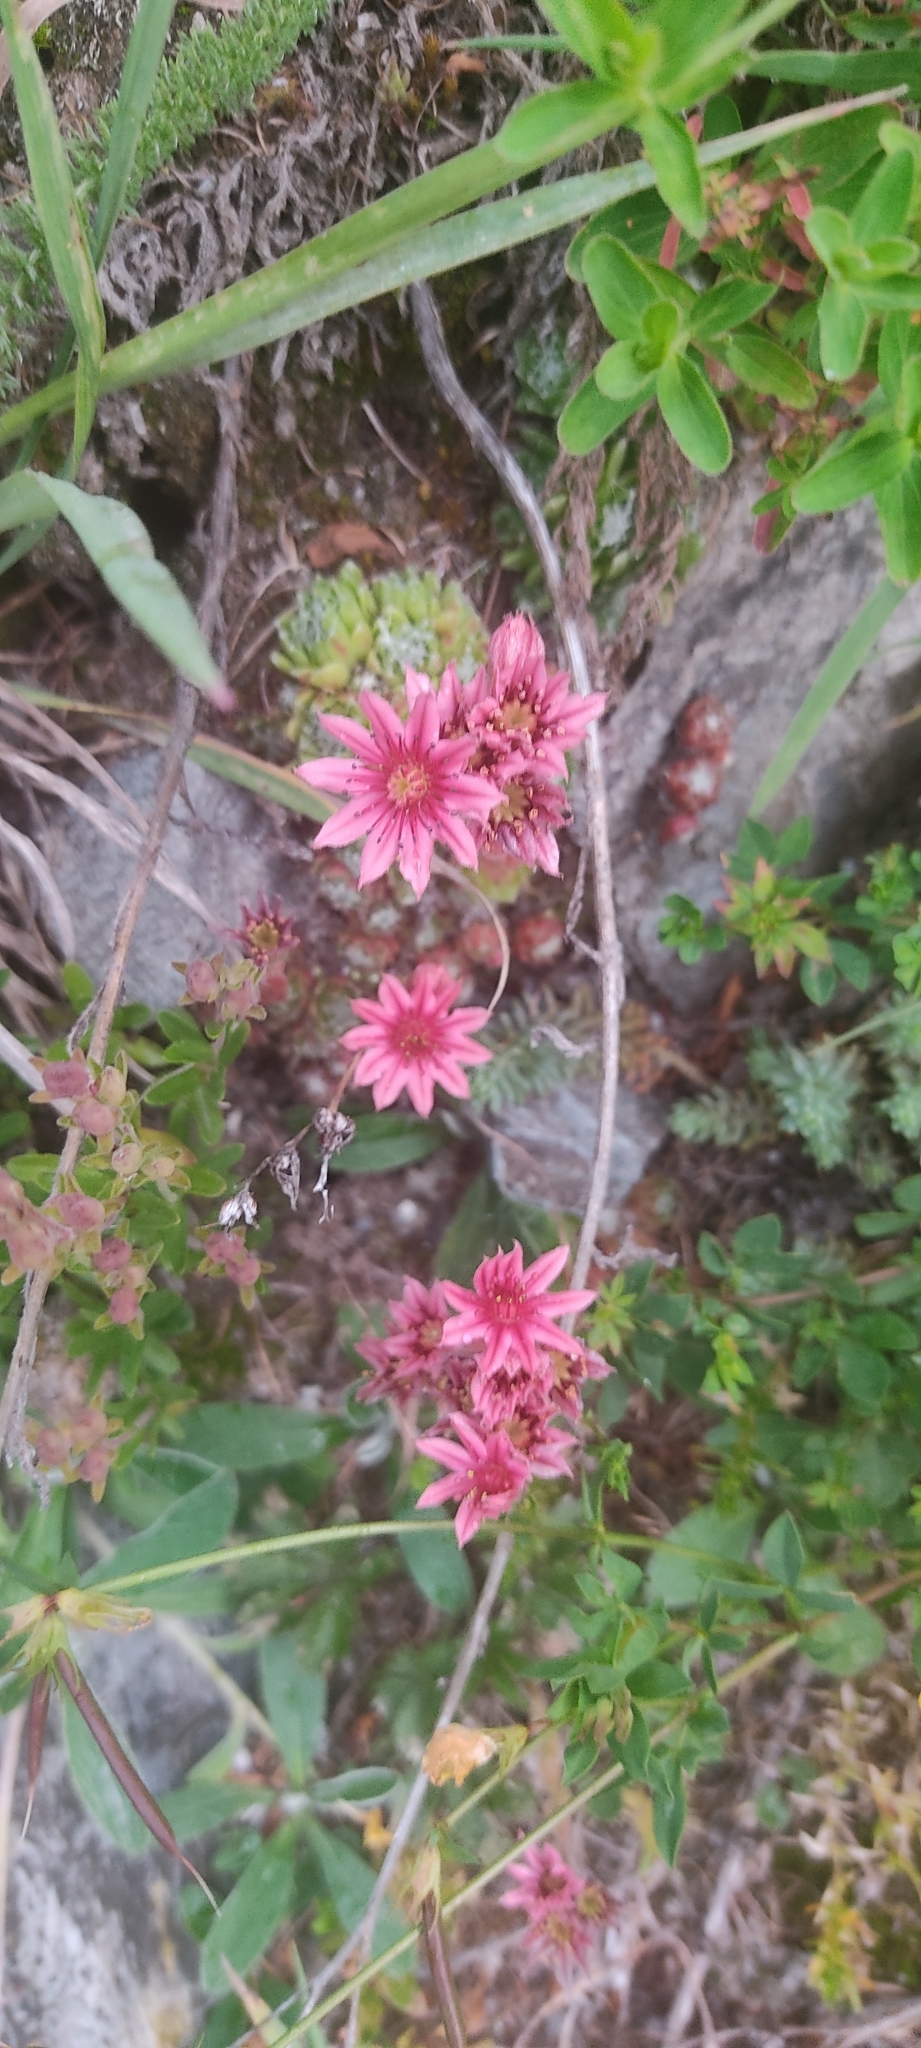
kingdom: Plantae
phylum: Tracheophyta
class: Magnoliopsida
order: Saxifragales
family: Crassulaceae
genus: Sempervivum
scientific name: Sempervivum arachnoideum
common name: Cobweb house-leek
